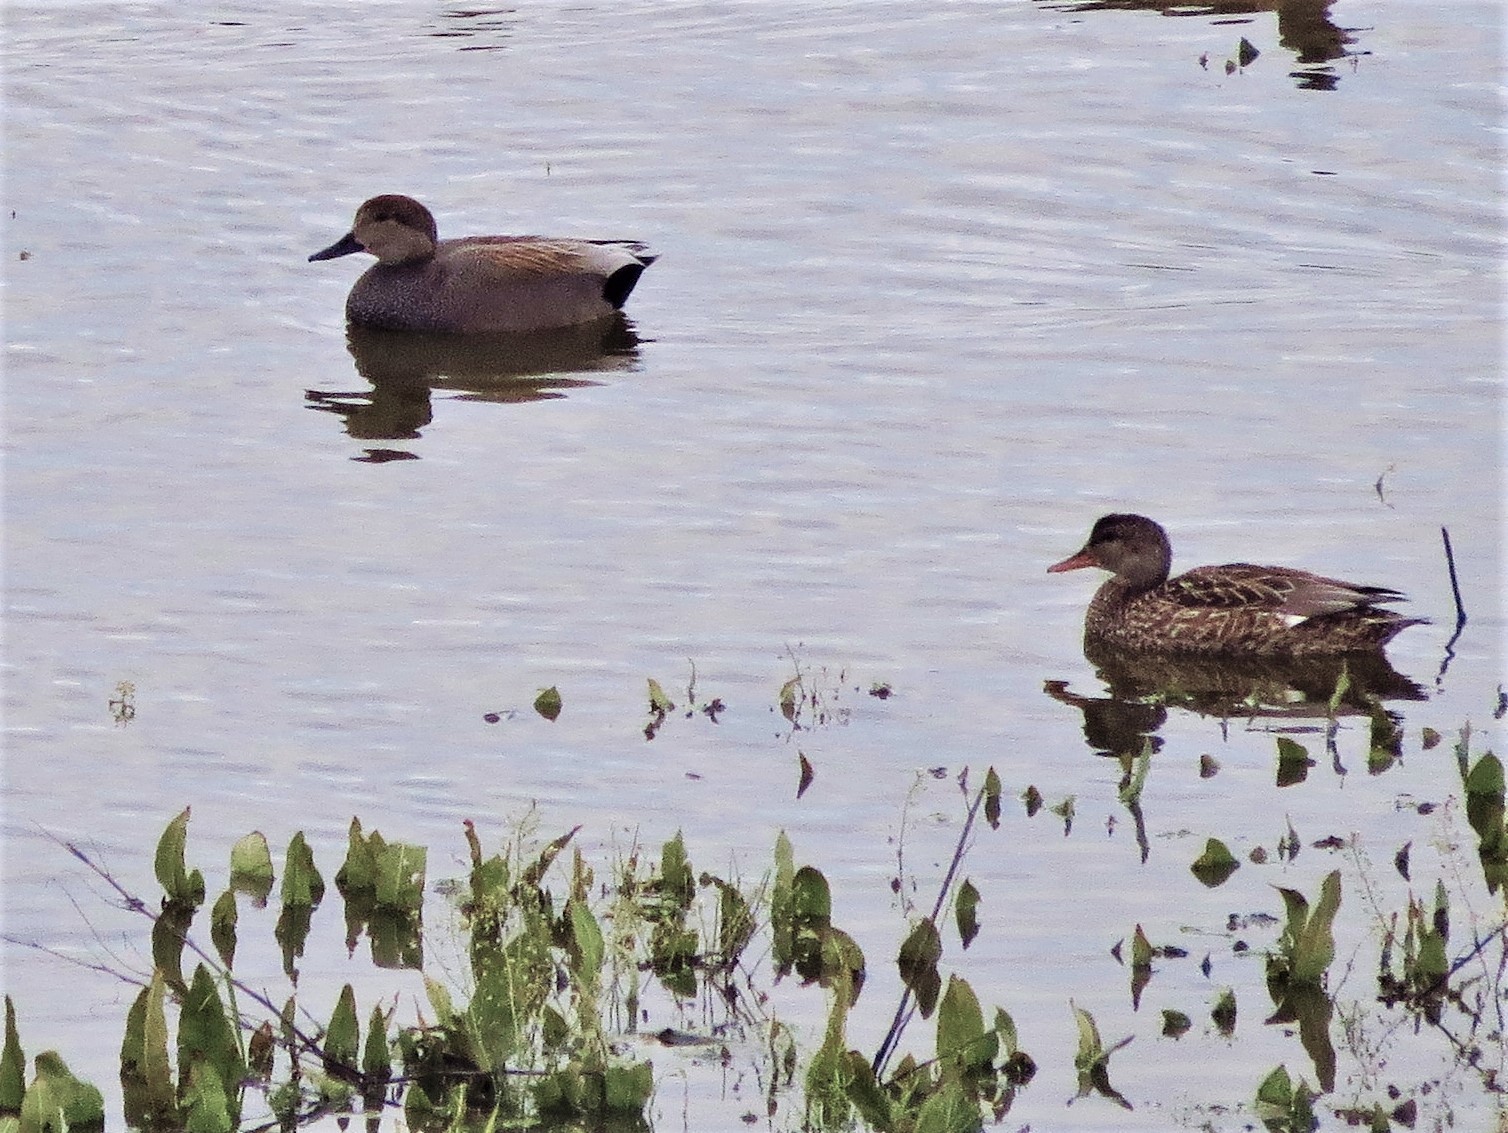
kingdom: Animalia
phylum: Chordata
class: Aves
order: Anseriformes
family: Anatidae
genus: Mareca
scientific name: Mareca strepera
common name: Gadwall
